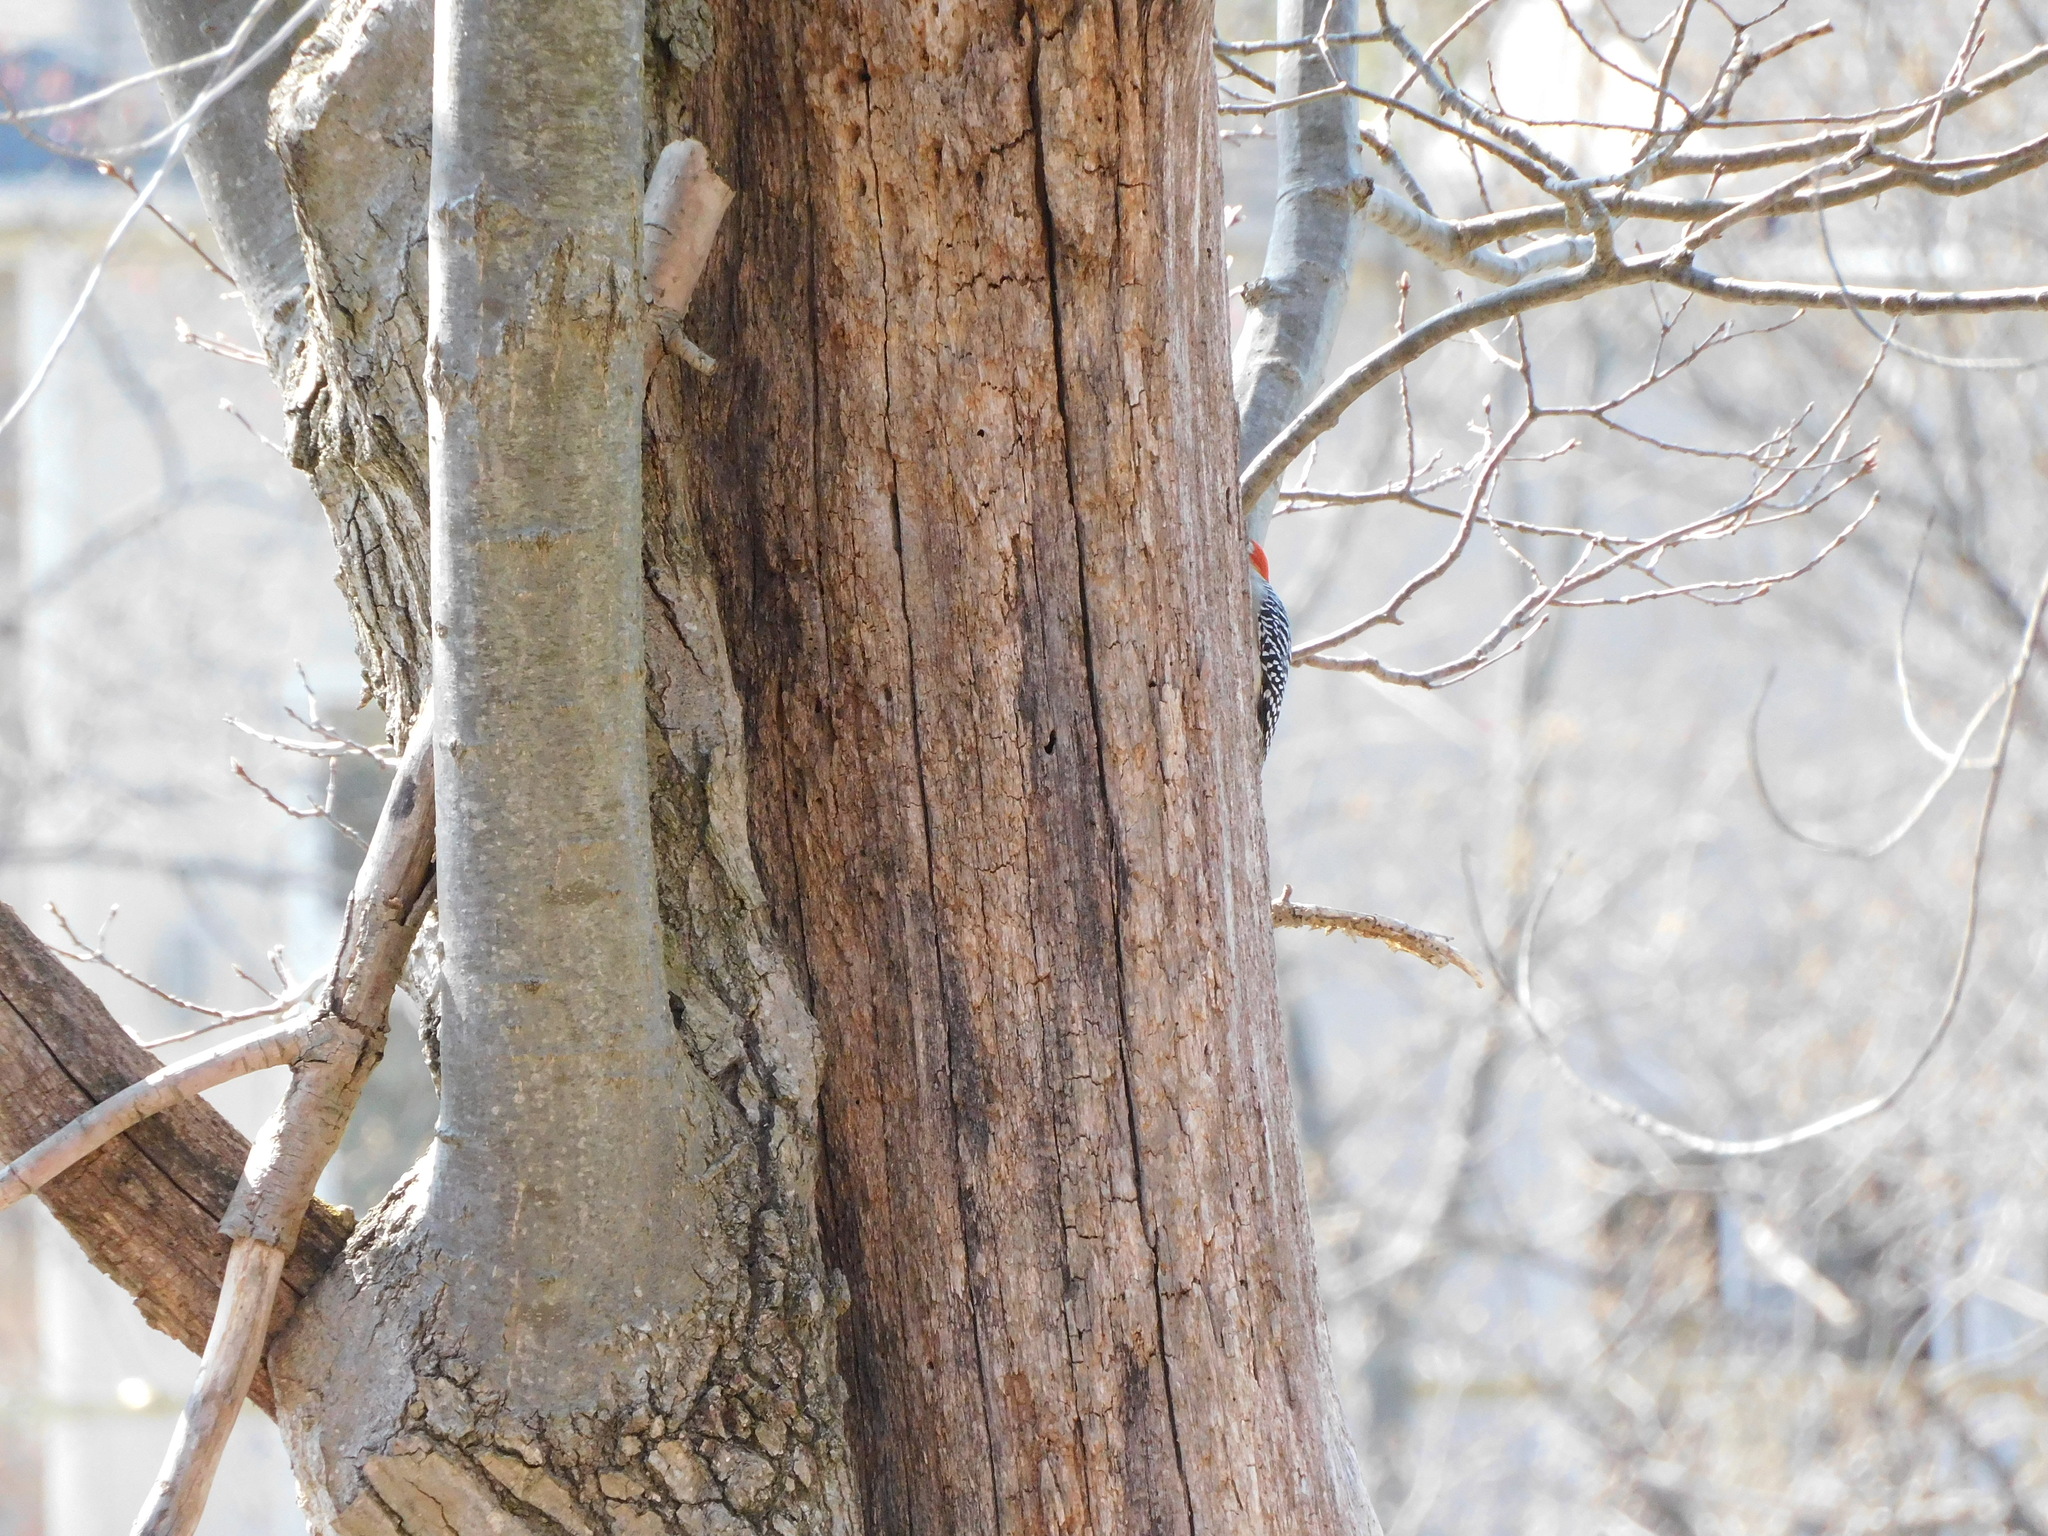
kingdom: Animalia
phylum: Chordata
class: Aves
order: Piciformes
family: Picidae
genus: Melanerpes
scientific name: Melanerpes carolinus
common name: Red-bellied woodpecker
